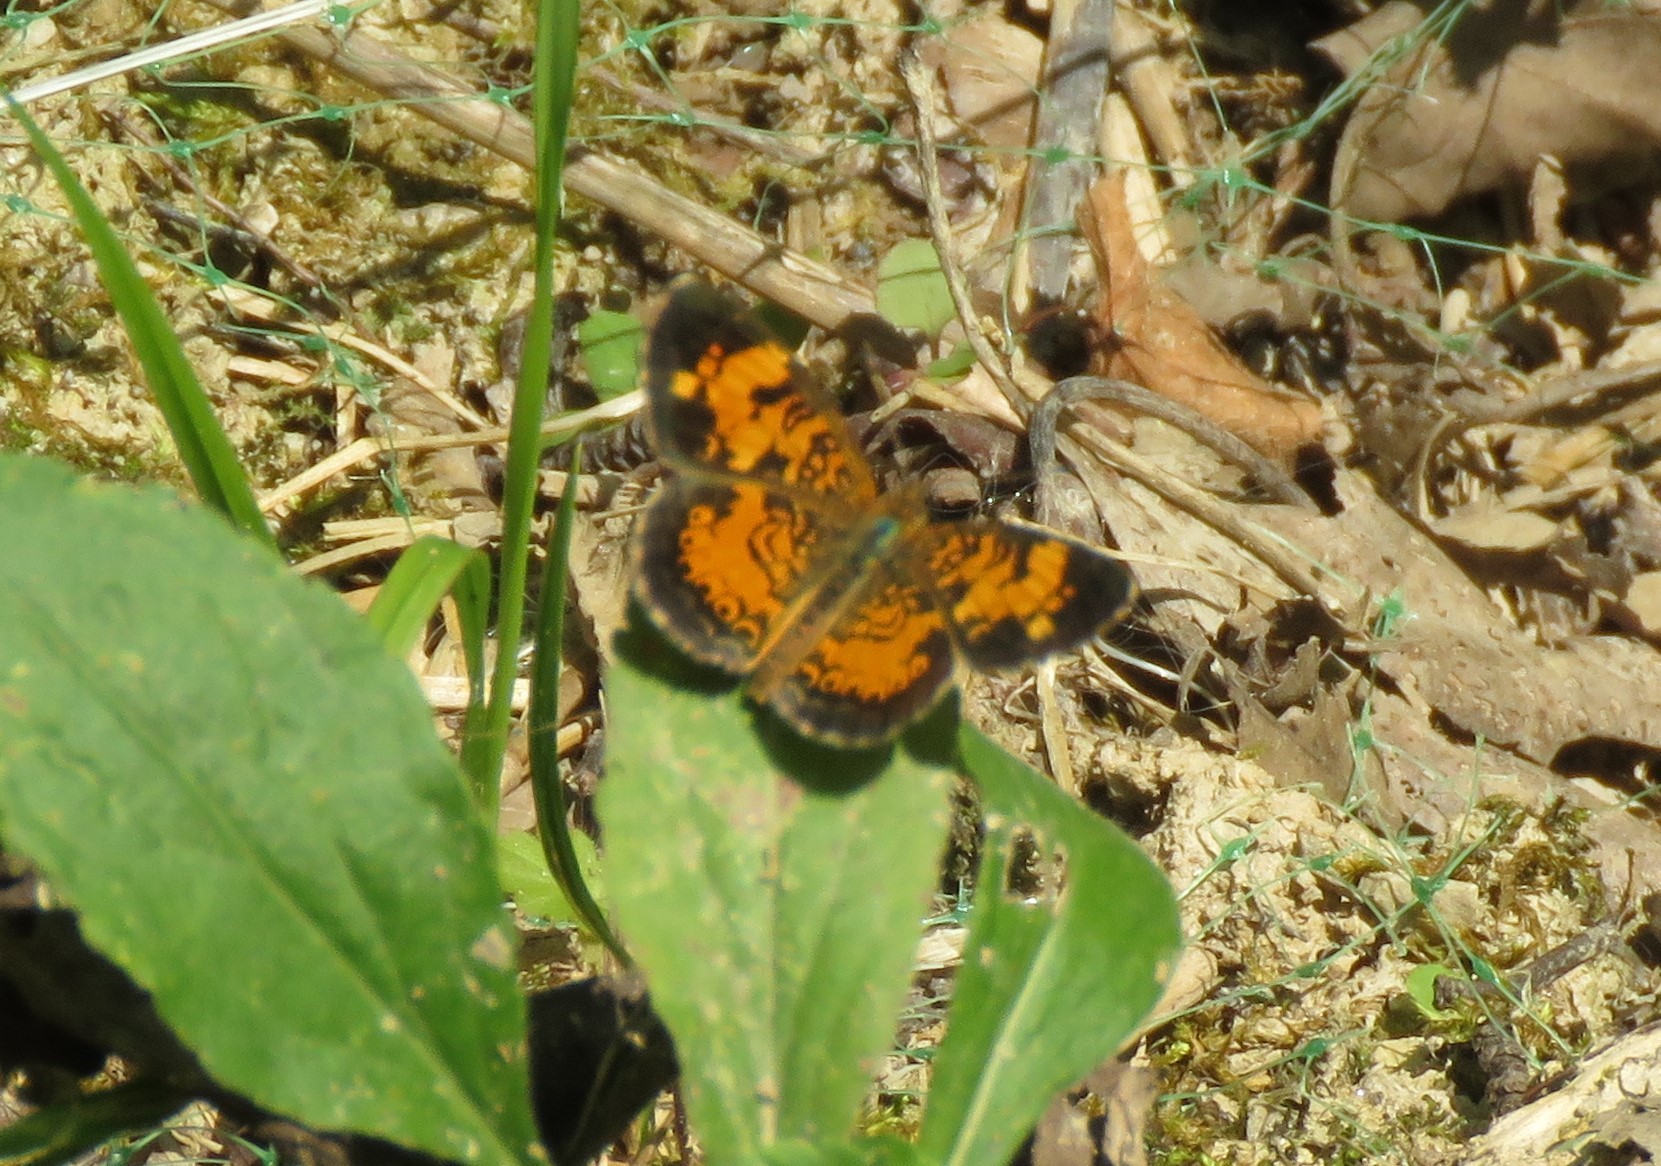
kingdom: Animalia
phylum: Arthropoda
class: Insecta
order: Lepidoptera
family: Nymphalidae
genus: Phyciodes
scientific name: Phyciodes tharos
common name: Pearl crescent
